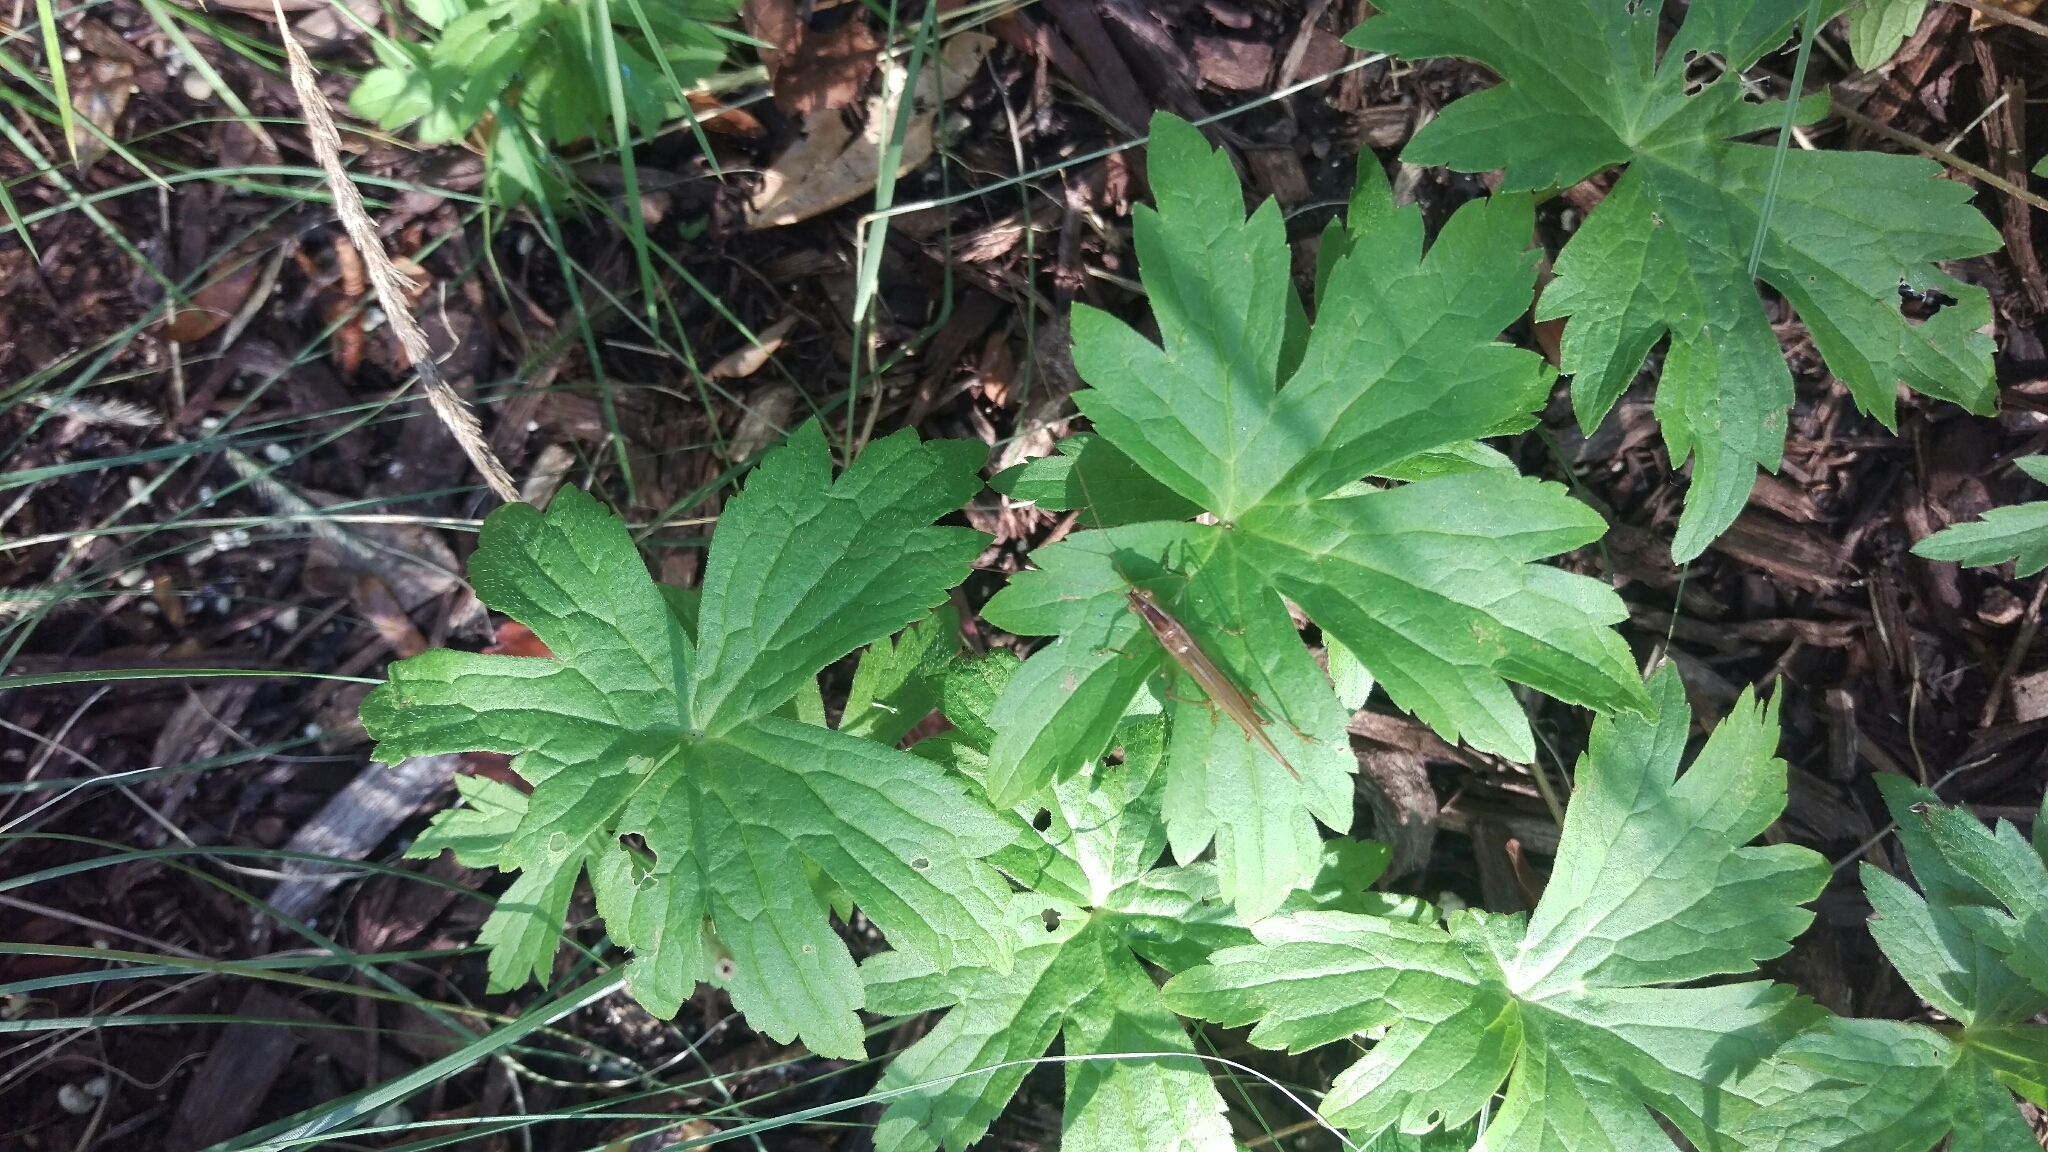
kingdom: Animalia
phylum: Arthropoda
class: Insecta
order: Orthoptera
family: Tettigoniidae
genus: Conocephalus
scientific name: Conocephalus brevipennis
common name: Short-winged meadow katydid
